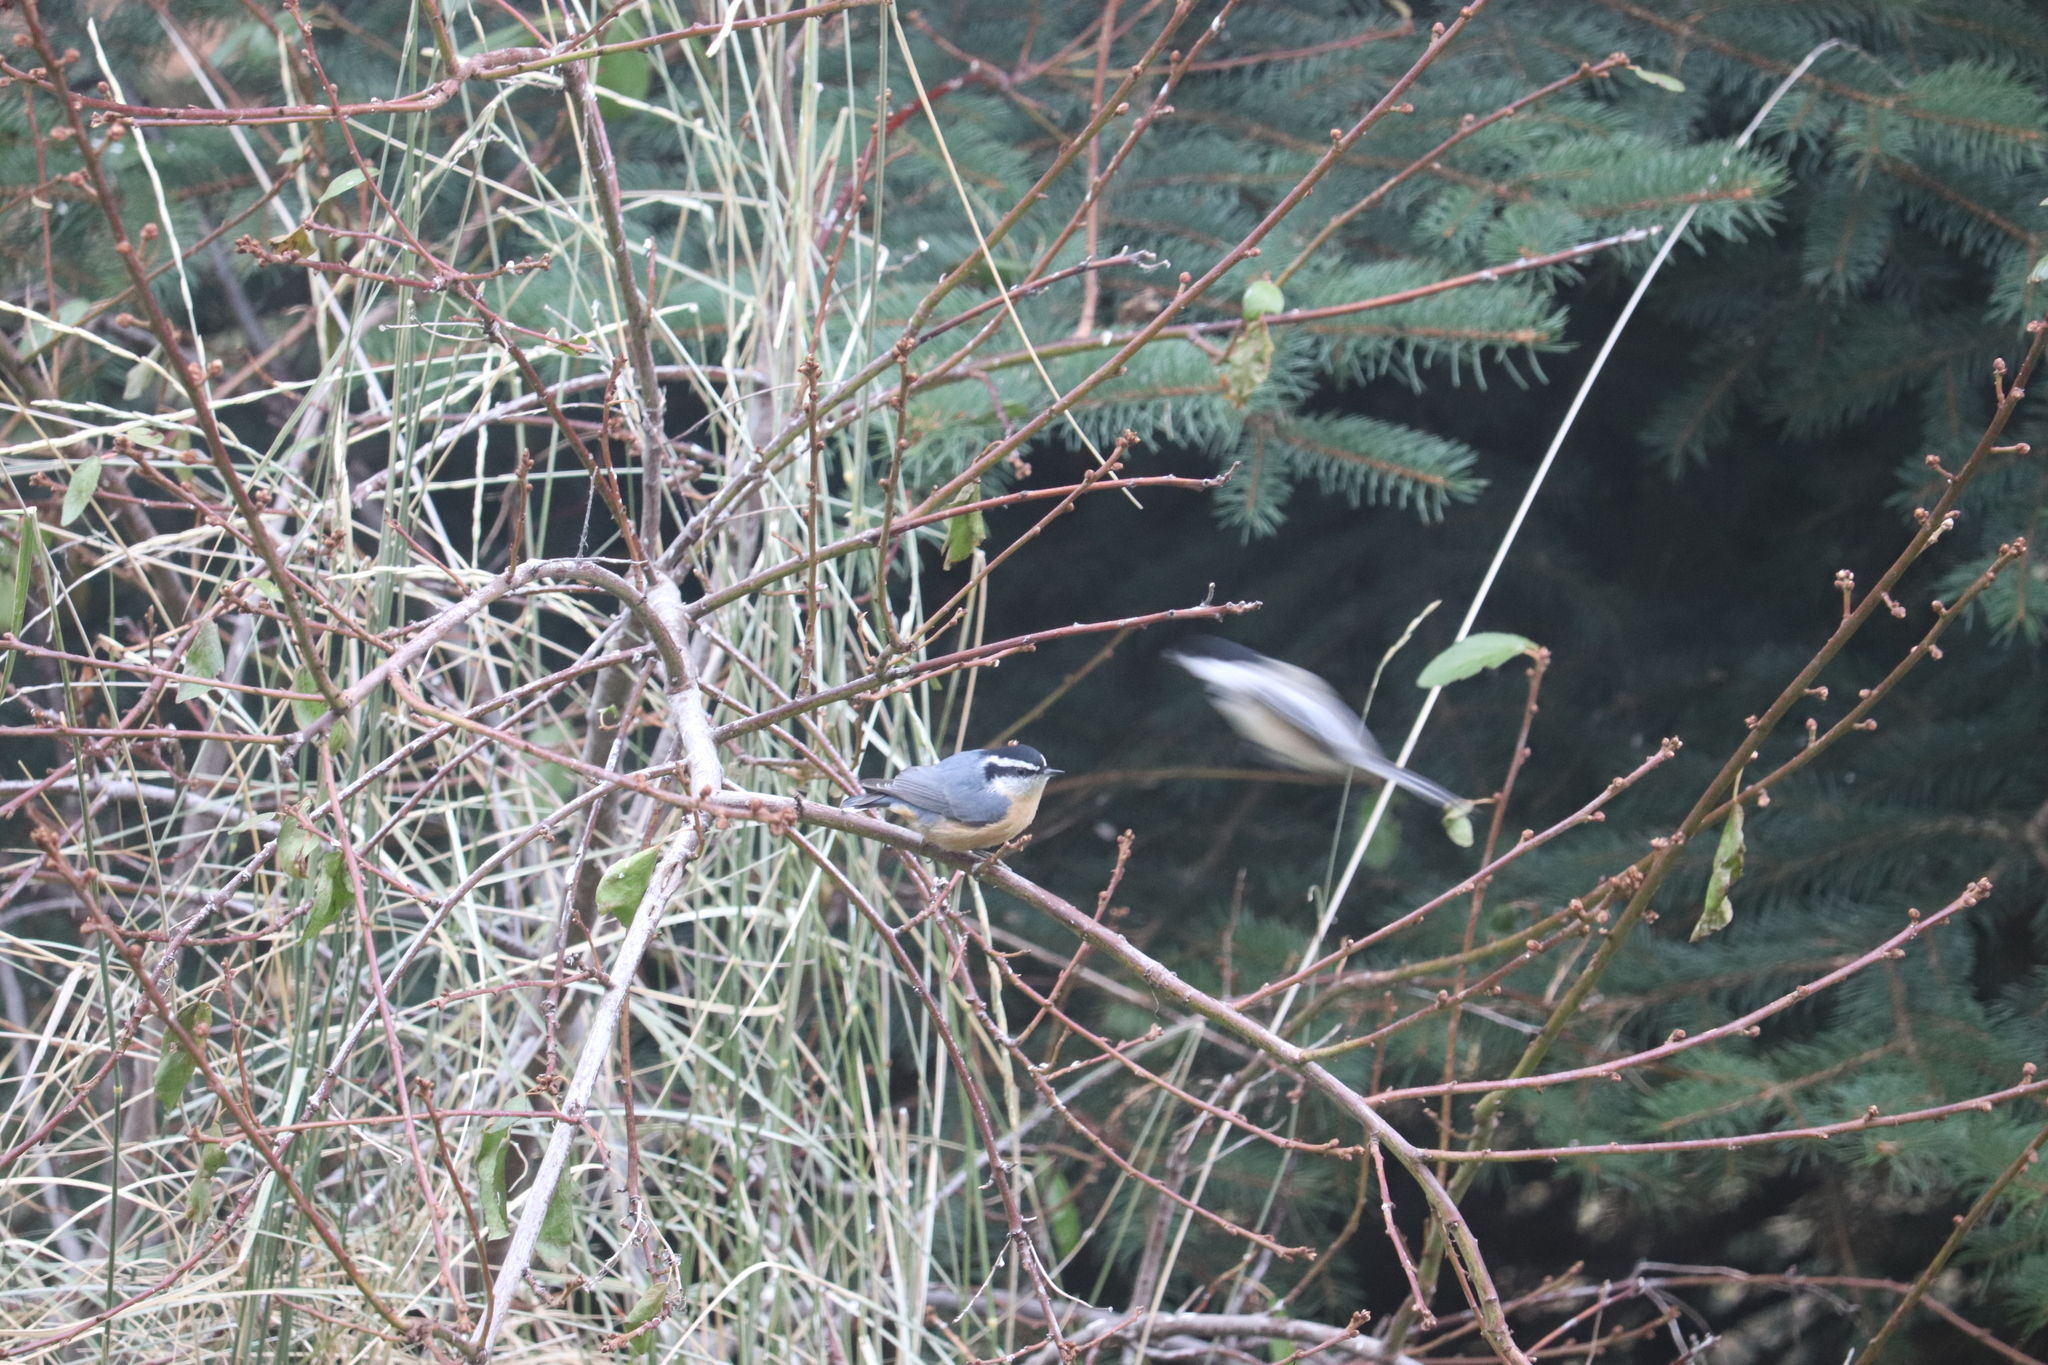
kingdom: Animalia
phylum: Chordata
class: Aves
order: Passeriformes
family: Sittidae
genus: Sitta
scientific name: Sitta canadensis
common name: Red-breasted nuthatch
